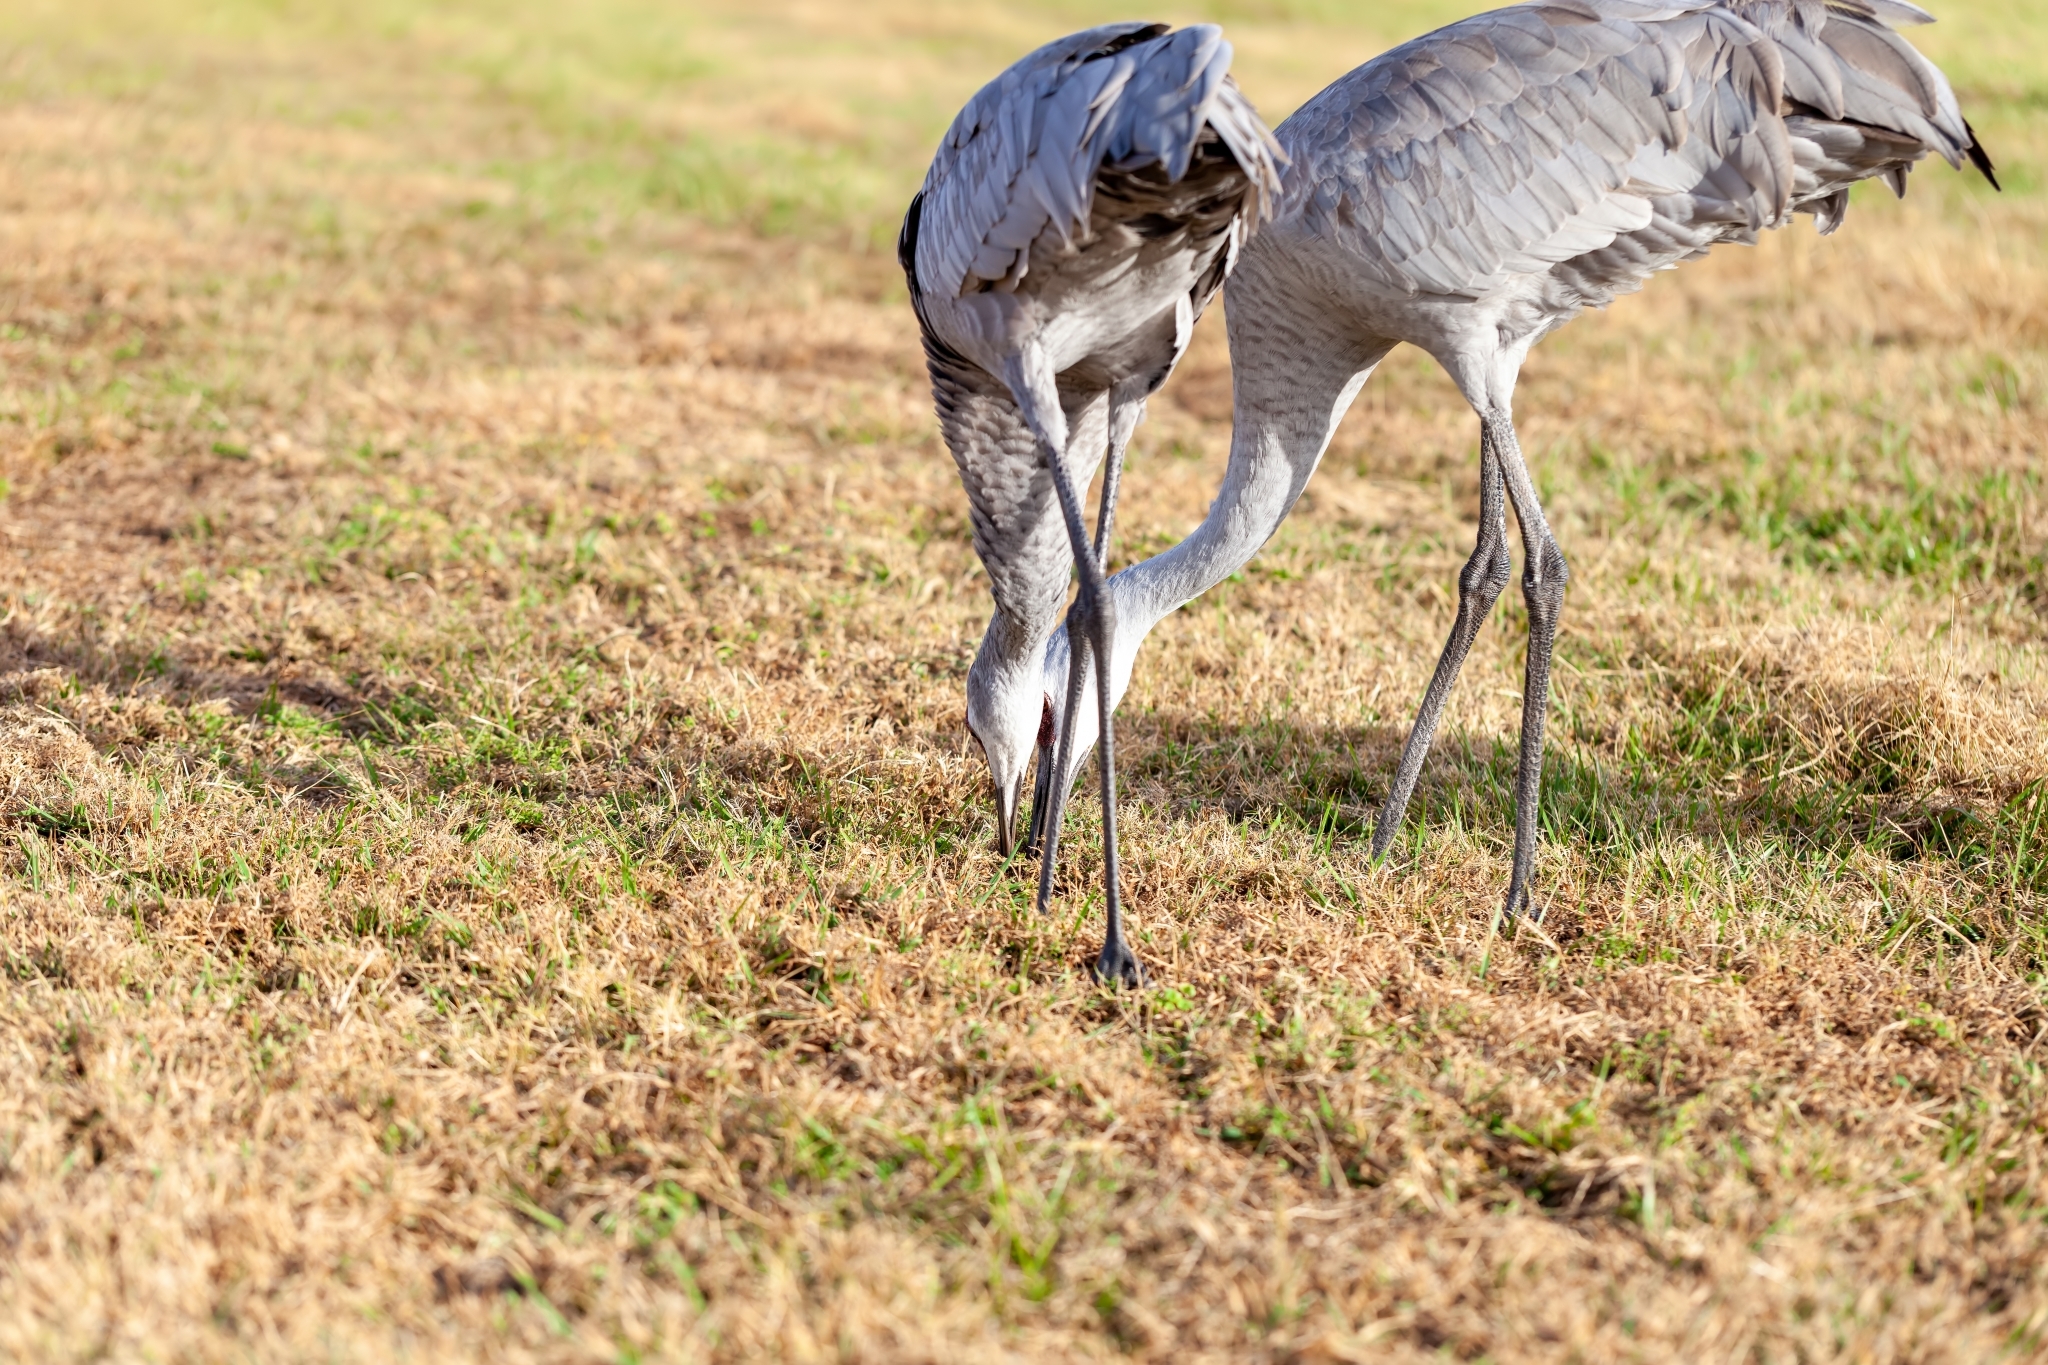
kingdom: Animalia
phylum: Chordata
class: Aves
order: Gruiformes
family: Gruidae
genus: Grus
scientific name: Grus canadensis
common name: Sandhill crane
